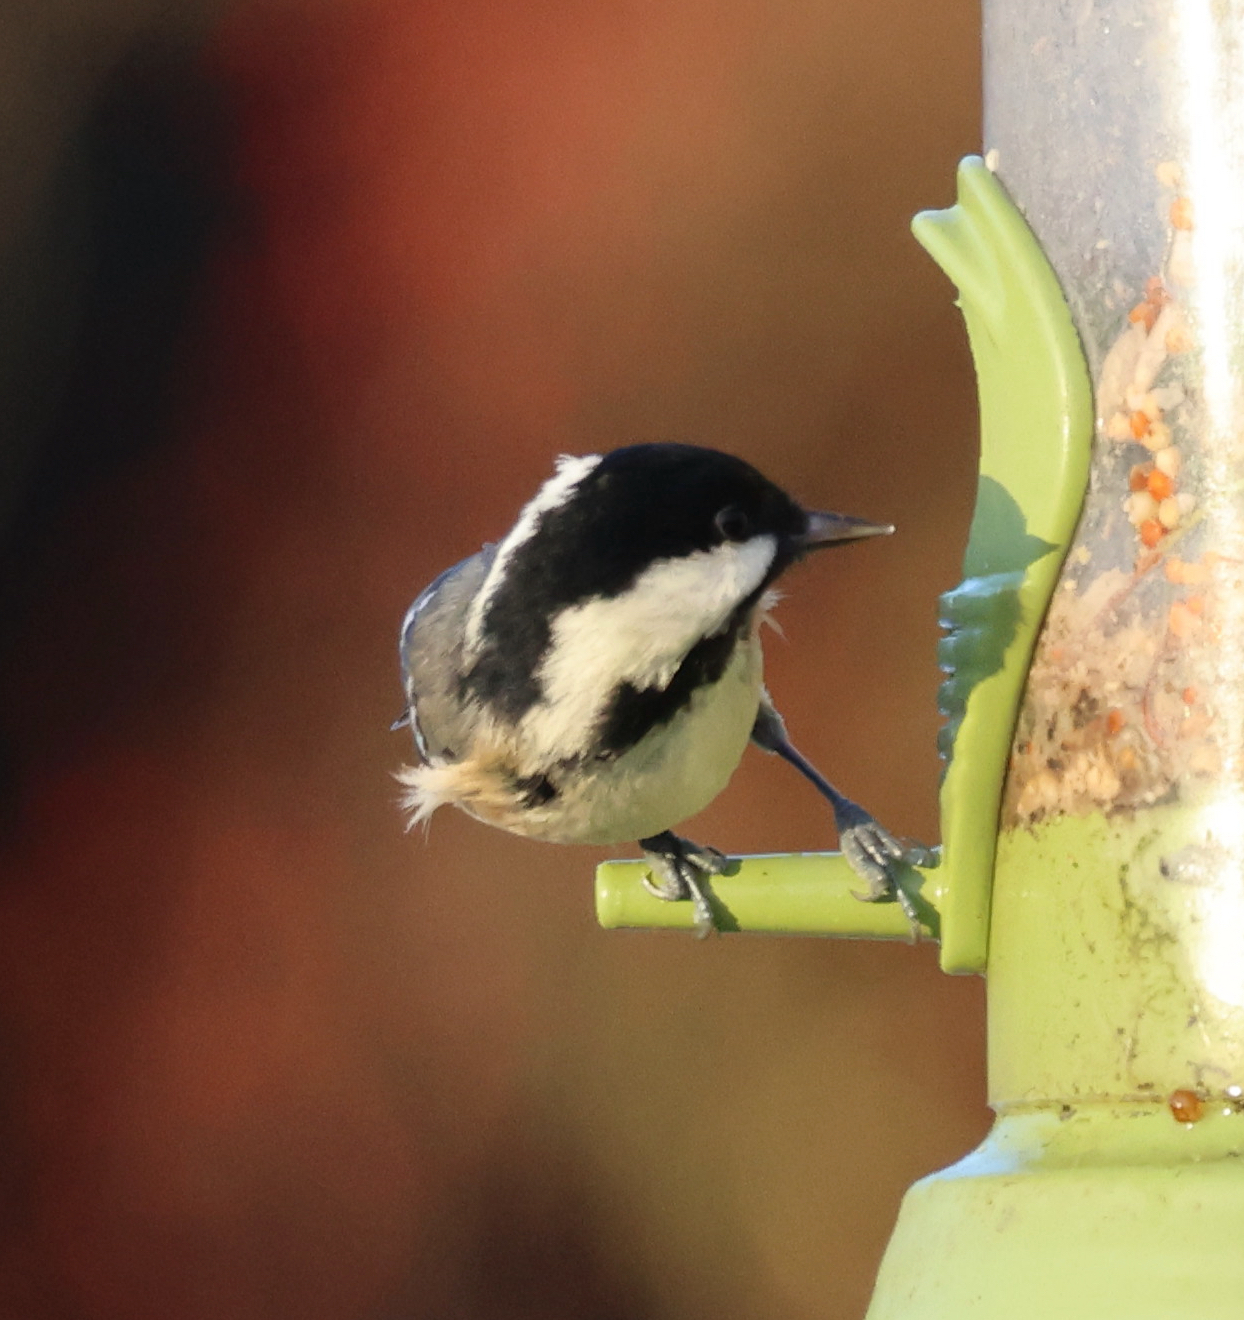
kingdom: Animalia
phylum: Chordata
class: Aves
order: Passeriformes
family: Paridae
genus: Periparus
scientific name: Periparus ater
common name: Coal tit
